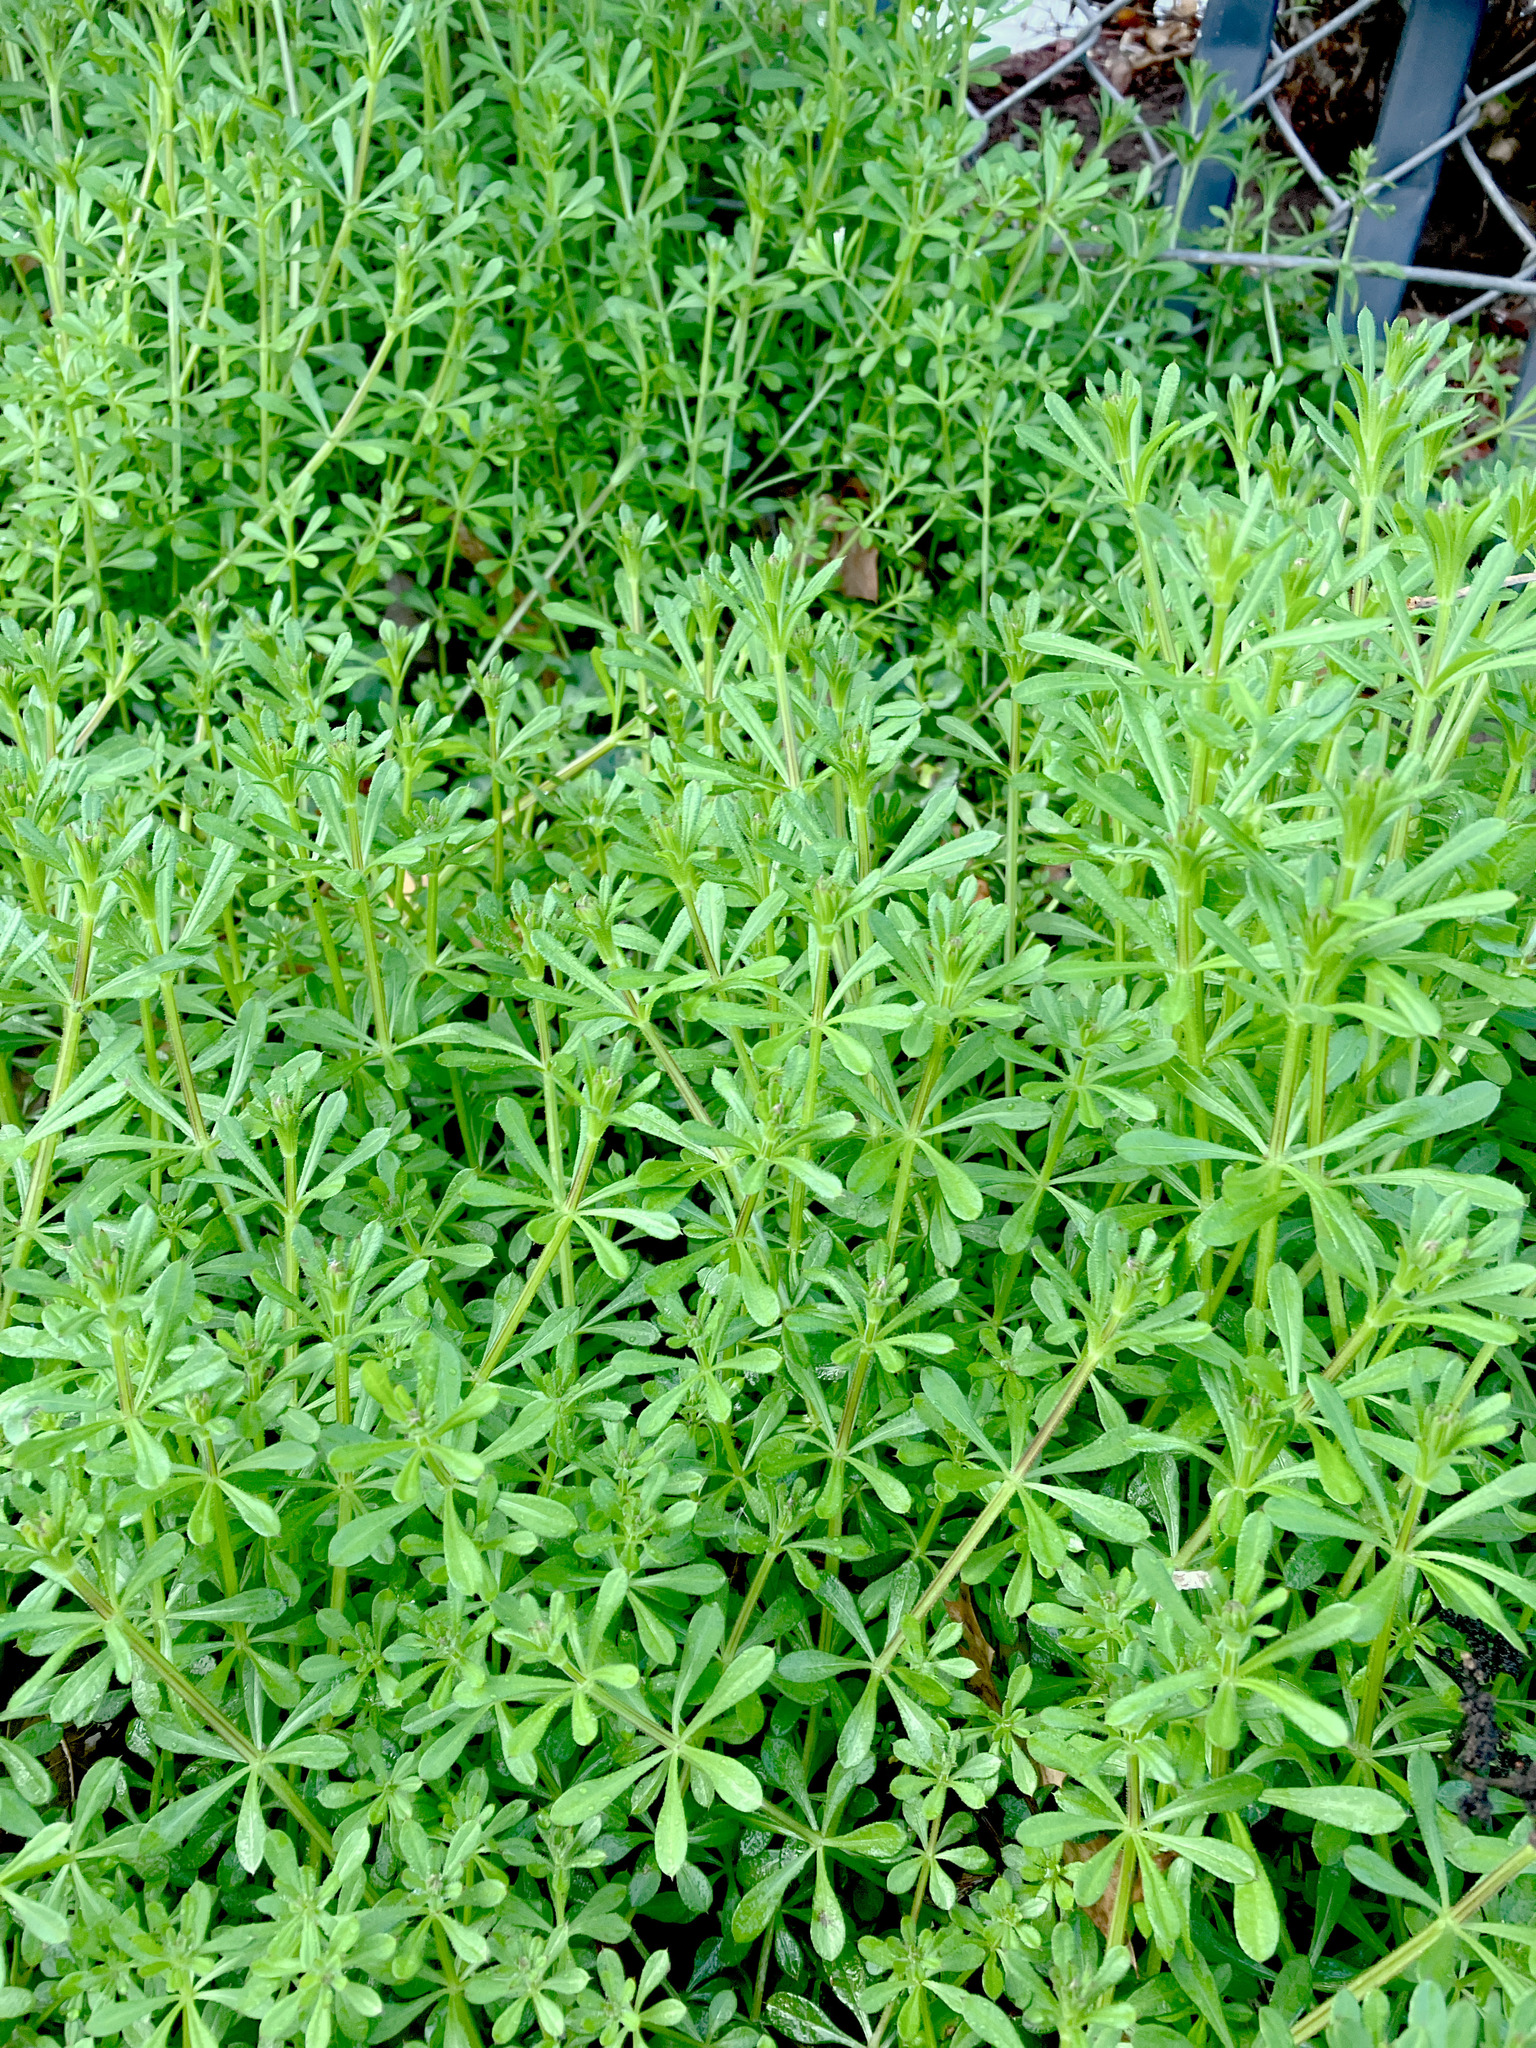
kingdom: Plantae
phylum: Tracheophyta
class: Magnoliopsida
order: Gentianales
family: Rubiaceae
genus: Galium
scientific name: Galium aparine
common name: Cleavers
